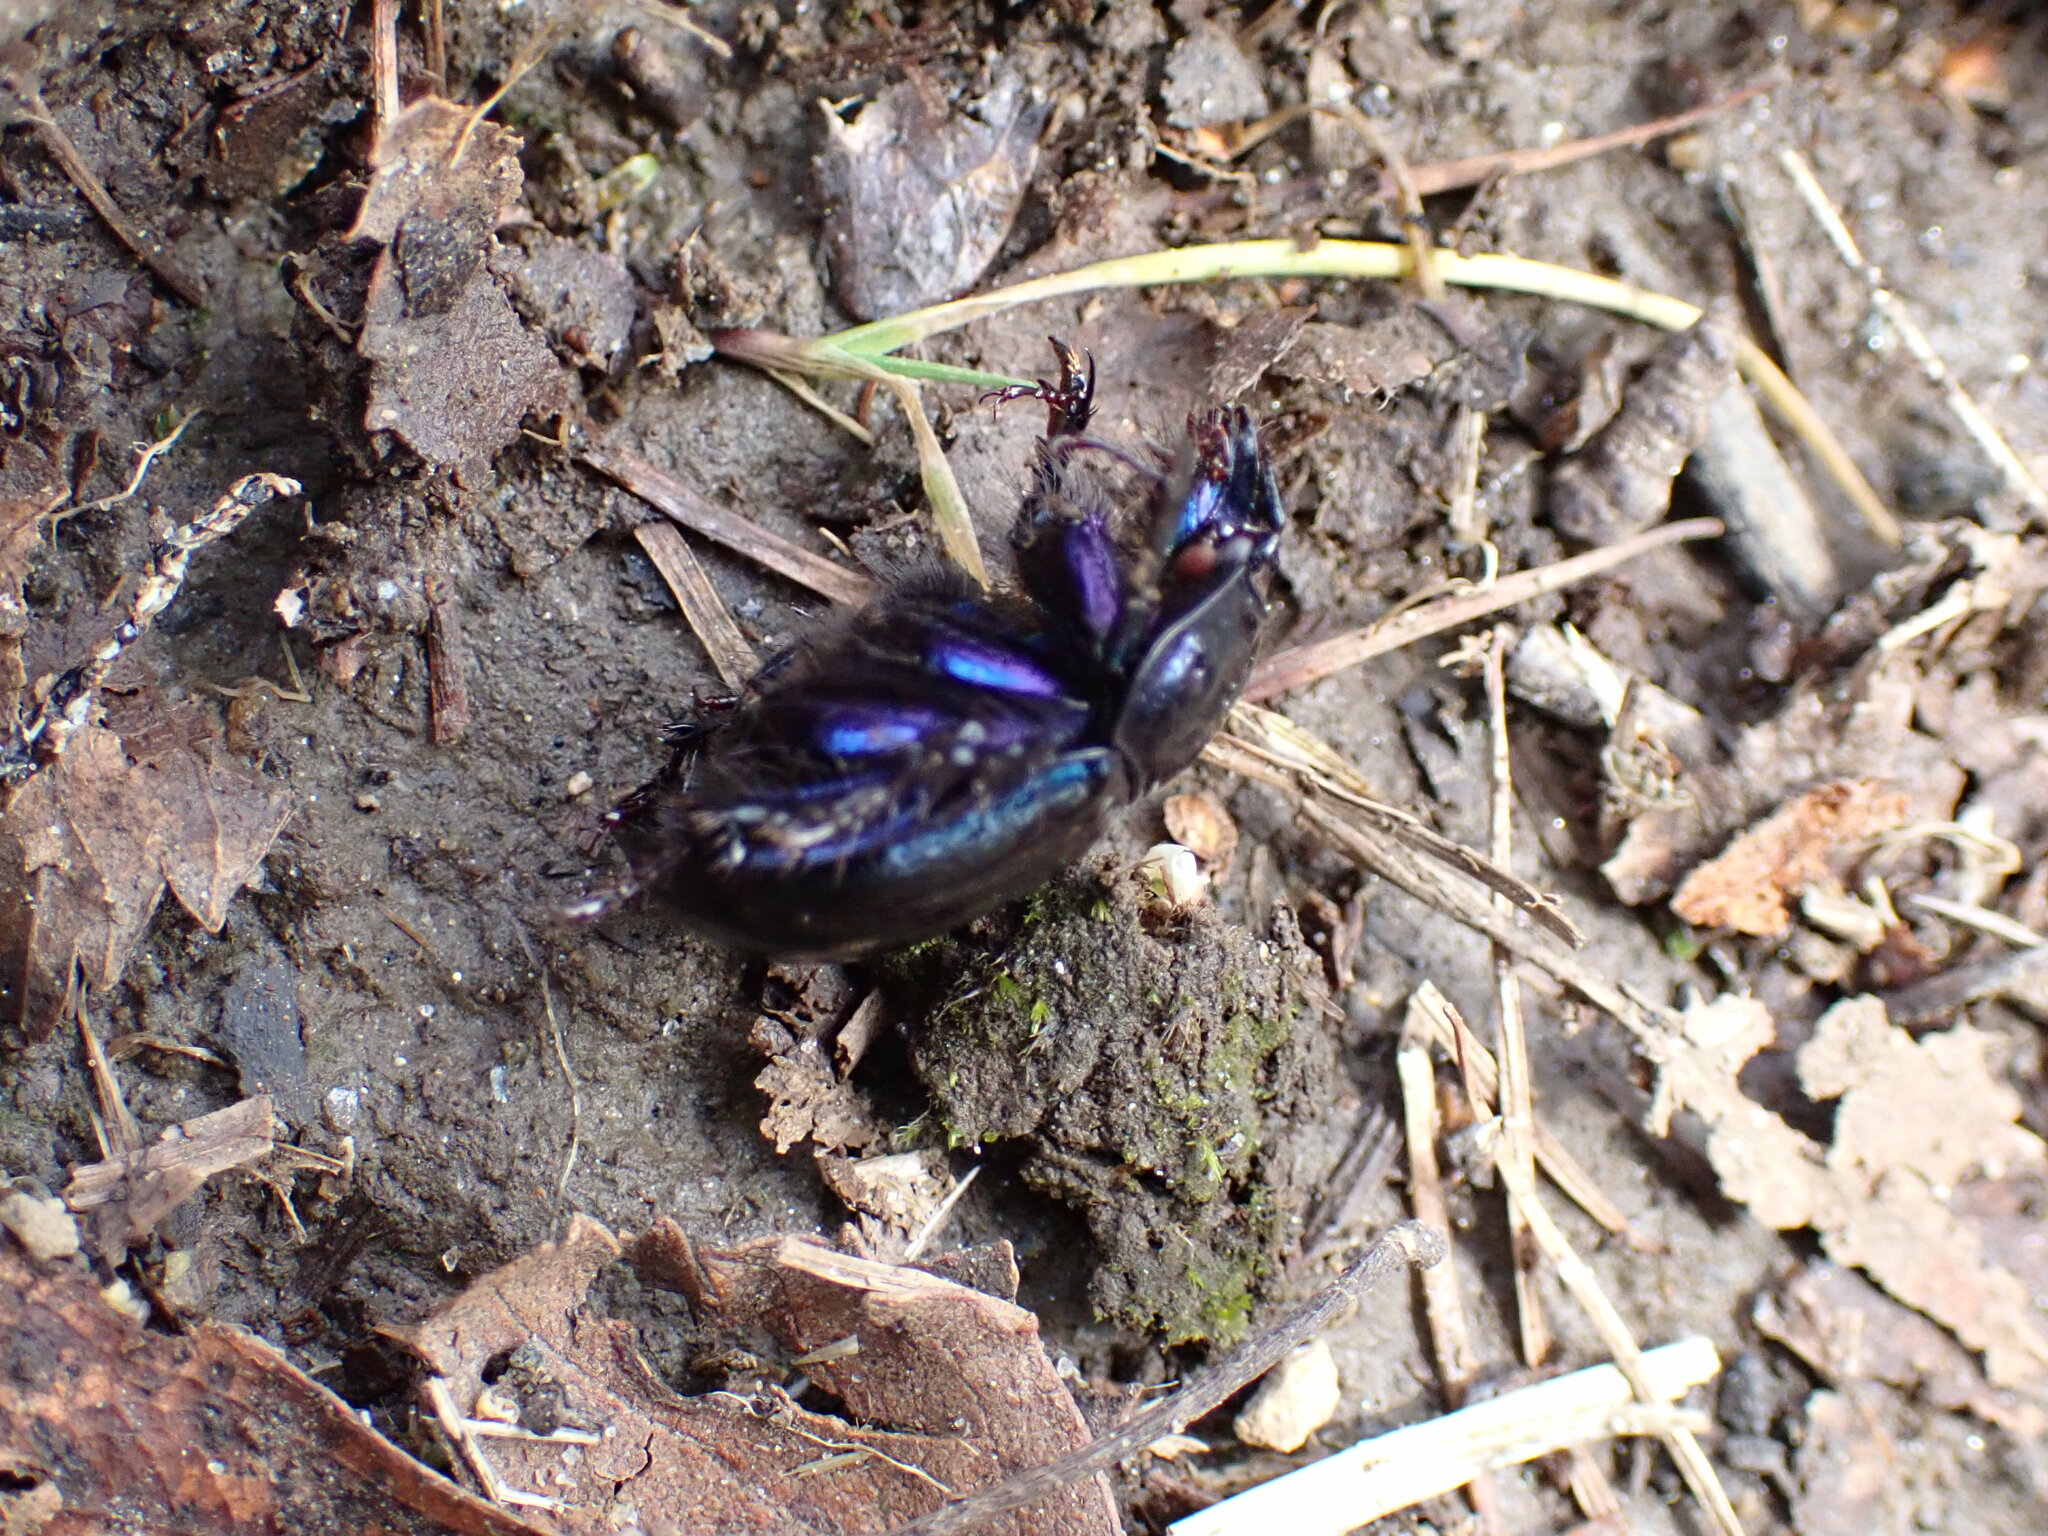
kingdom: Animalia
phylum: Arthropoda
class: Insecta
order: Coleoptera
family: Geotrupidae
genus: Anoplotrupes
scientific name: Anoplotrupes stercorosus
